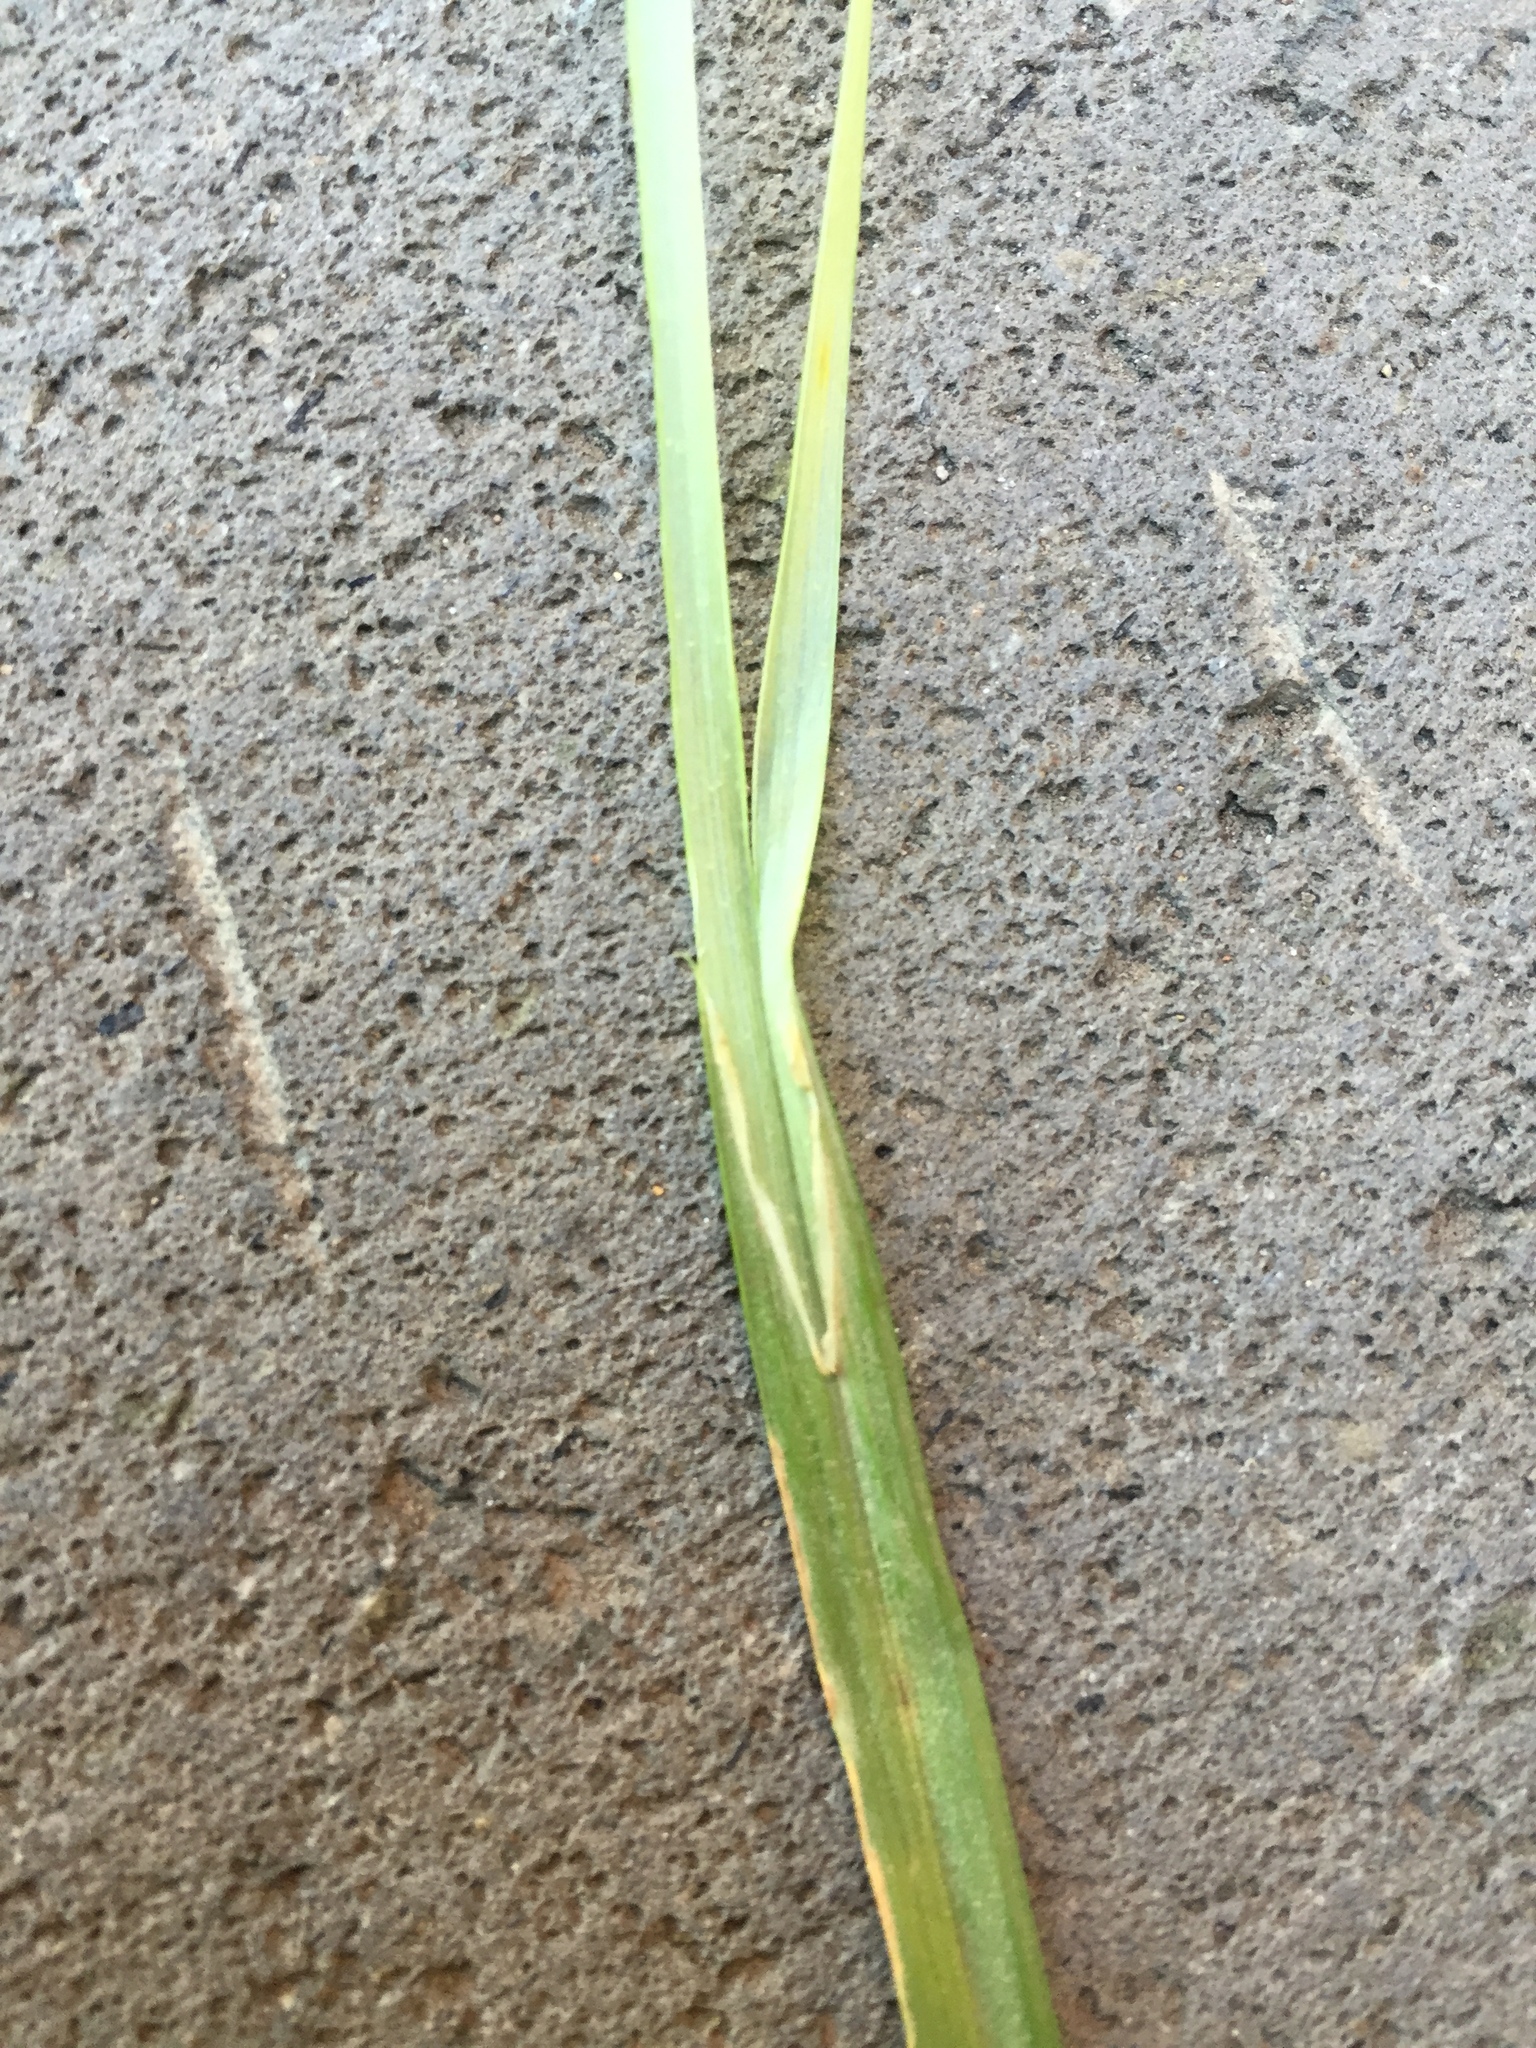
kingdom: Plantae
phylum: Tracheophyta
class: Liliopsida
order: Poales
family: Cyperaceae
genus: Carex
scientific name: Carex otrubae
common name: False fox-sedge
